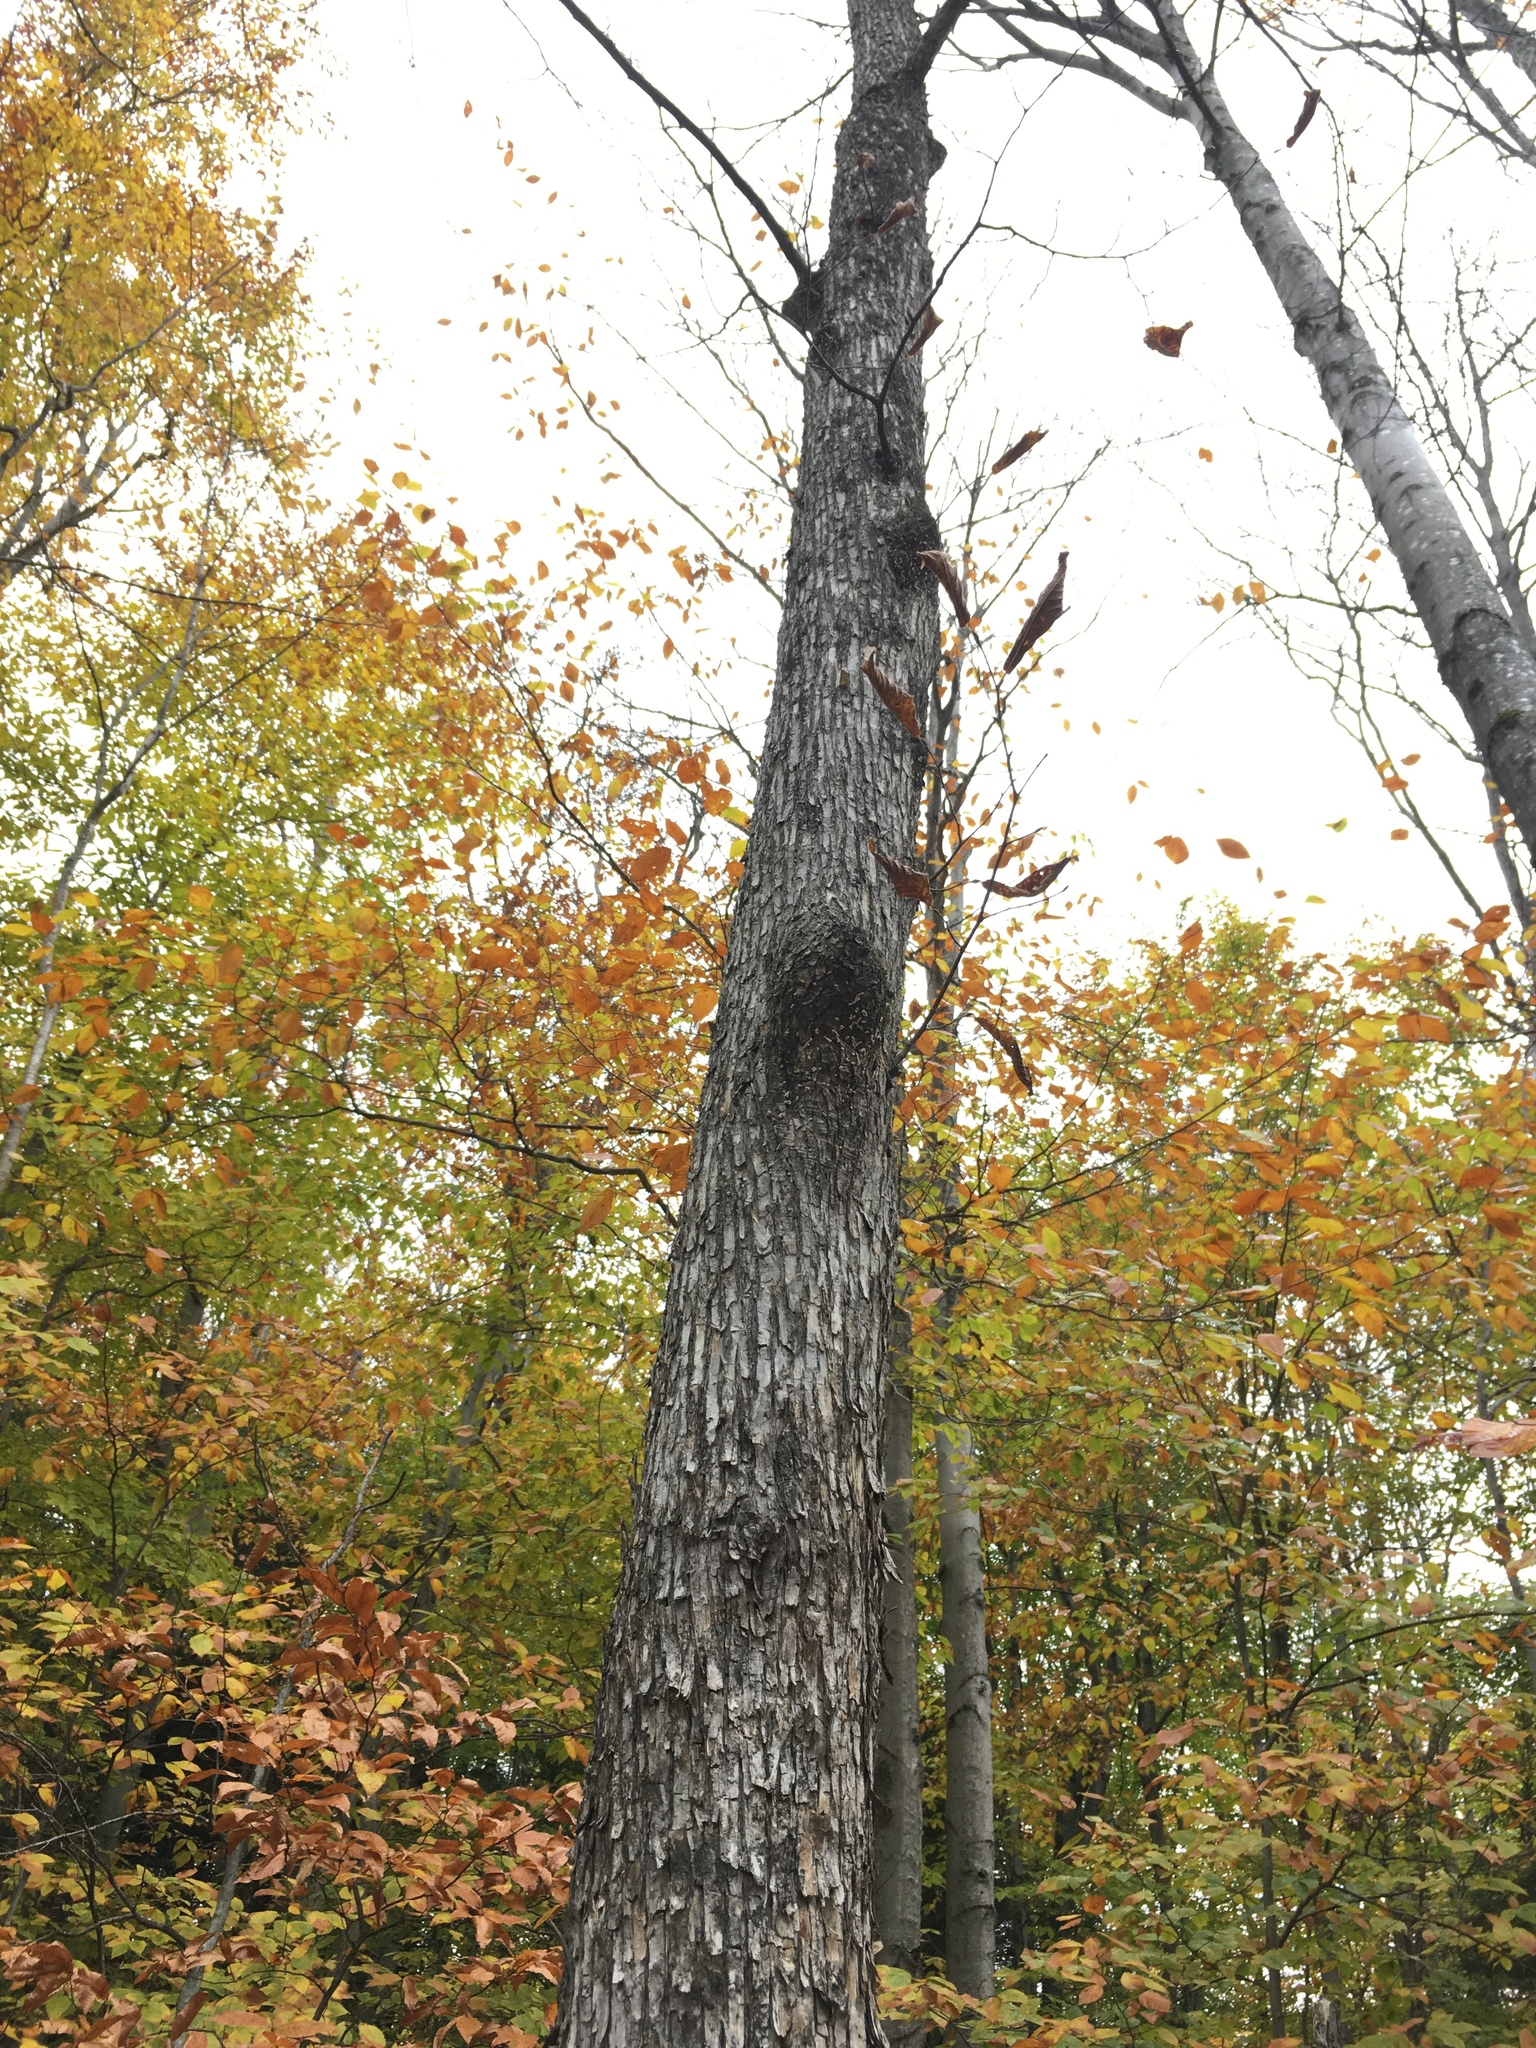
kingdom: Plantae
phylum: Tracheophyta
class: Magnoliopsida
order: Fagales
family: Betulaceae
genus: Ostrya
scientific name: Ostrya virginiana
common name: Ironwood
